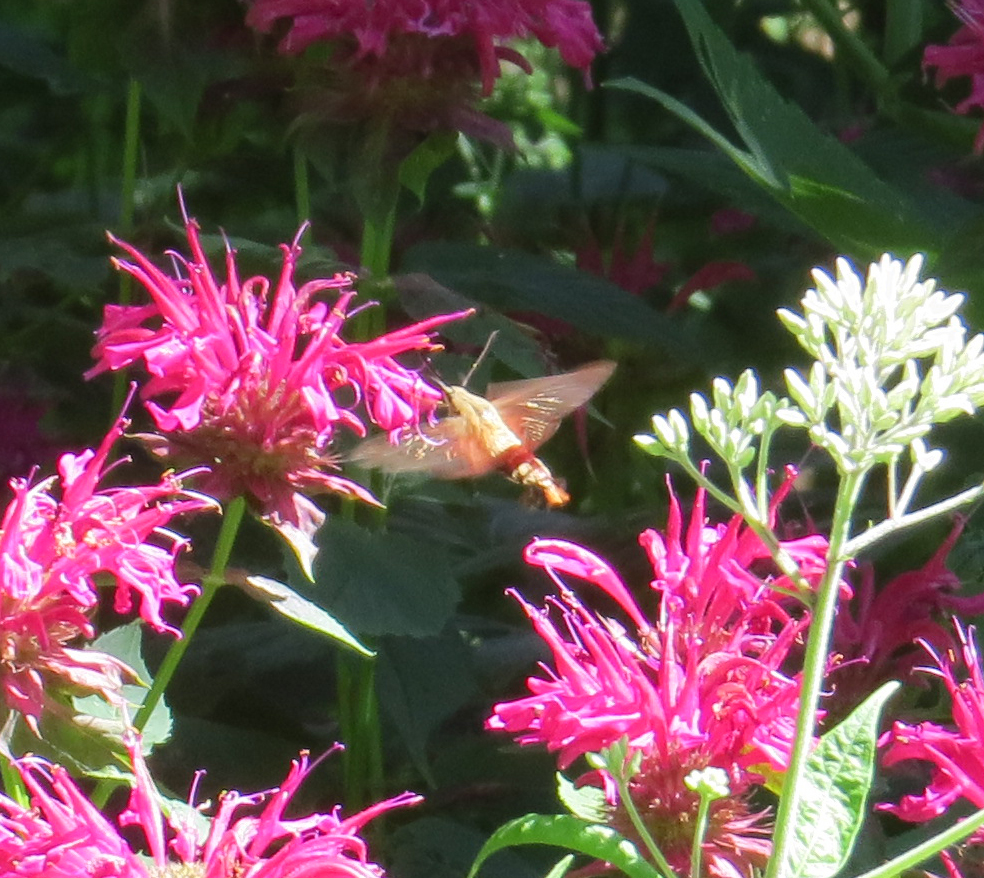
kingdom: Animalia
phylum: Arthropoda
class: Insecta
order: Lepidoptera
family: Sphingidae
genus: Hemaris
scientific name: Hemaris thysbe
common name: Common clear-wing
